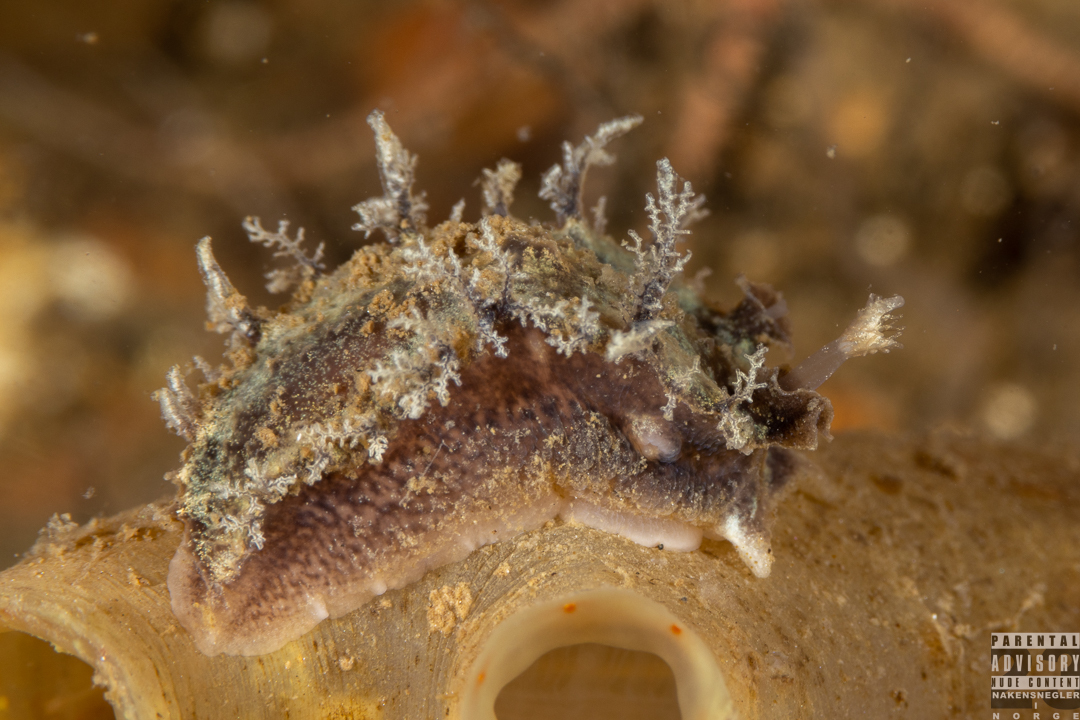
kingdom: Animalia
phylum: Mollusca
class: Gastropoda
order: Nudibranchia
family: Tritoniidae
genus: Duvaucelia
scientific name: Duvaucelia plebeia
